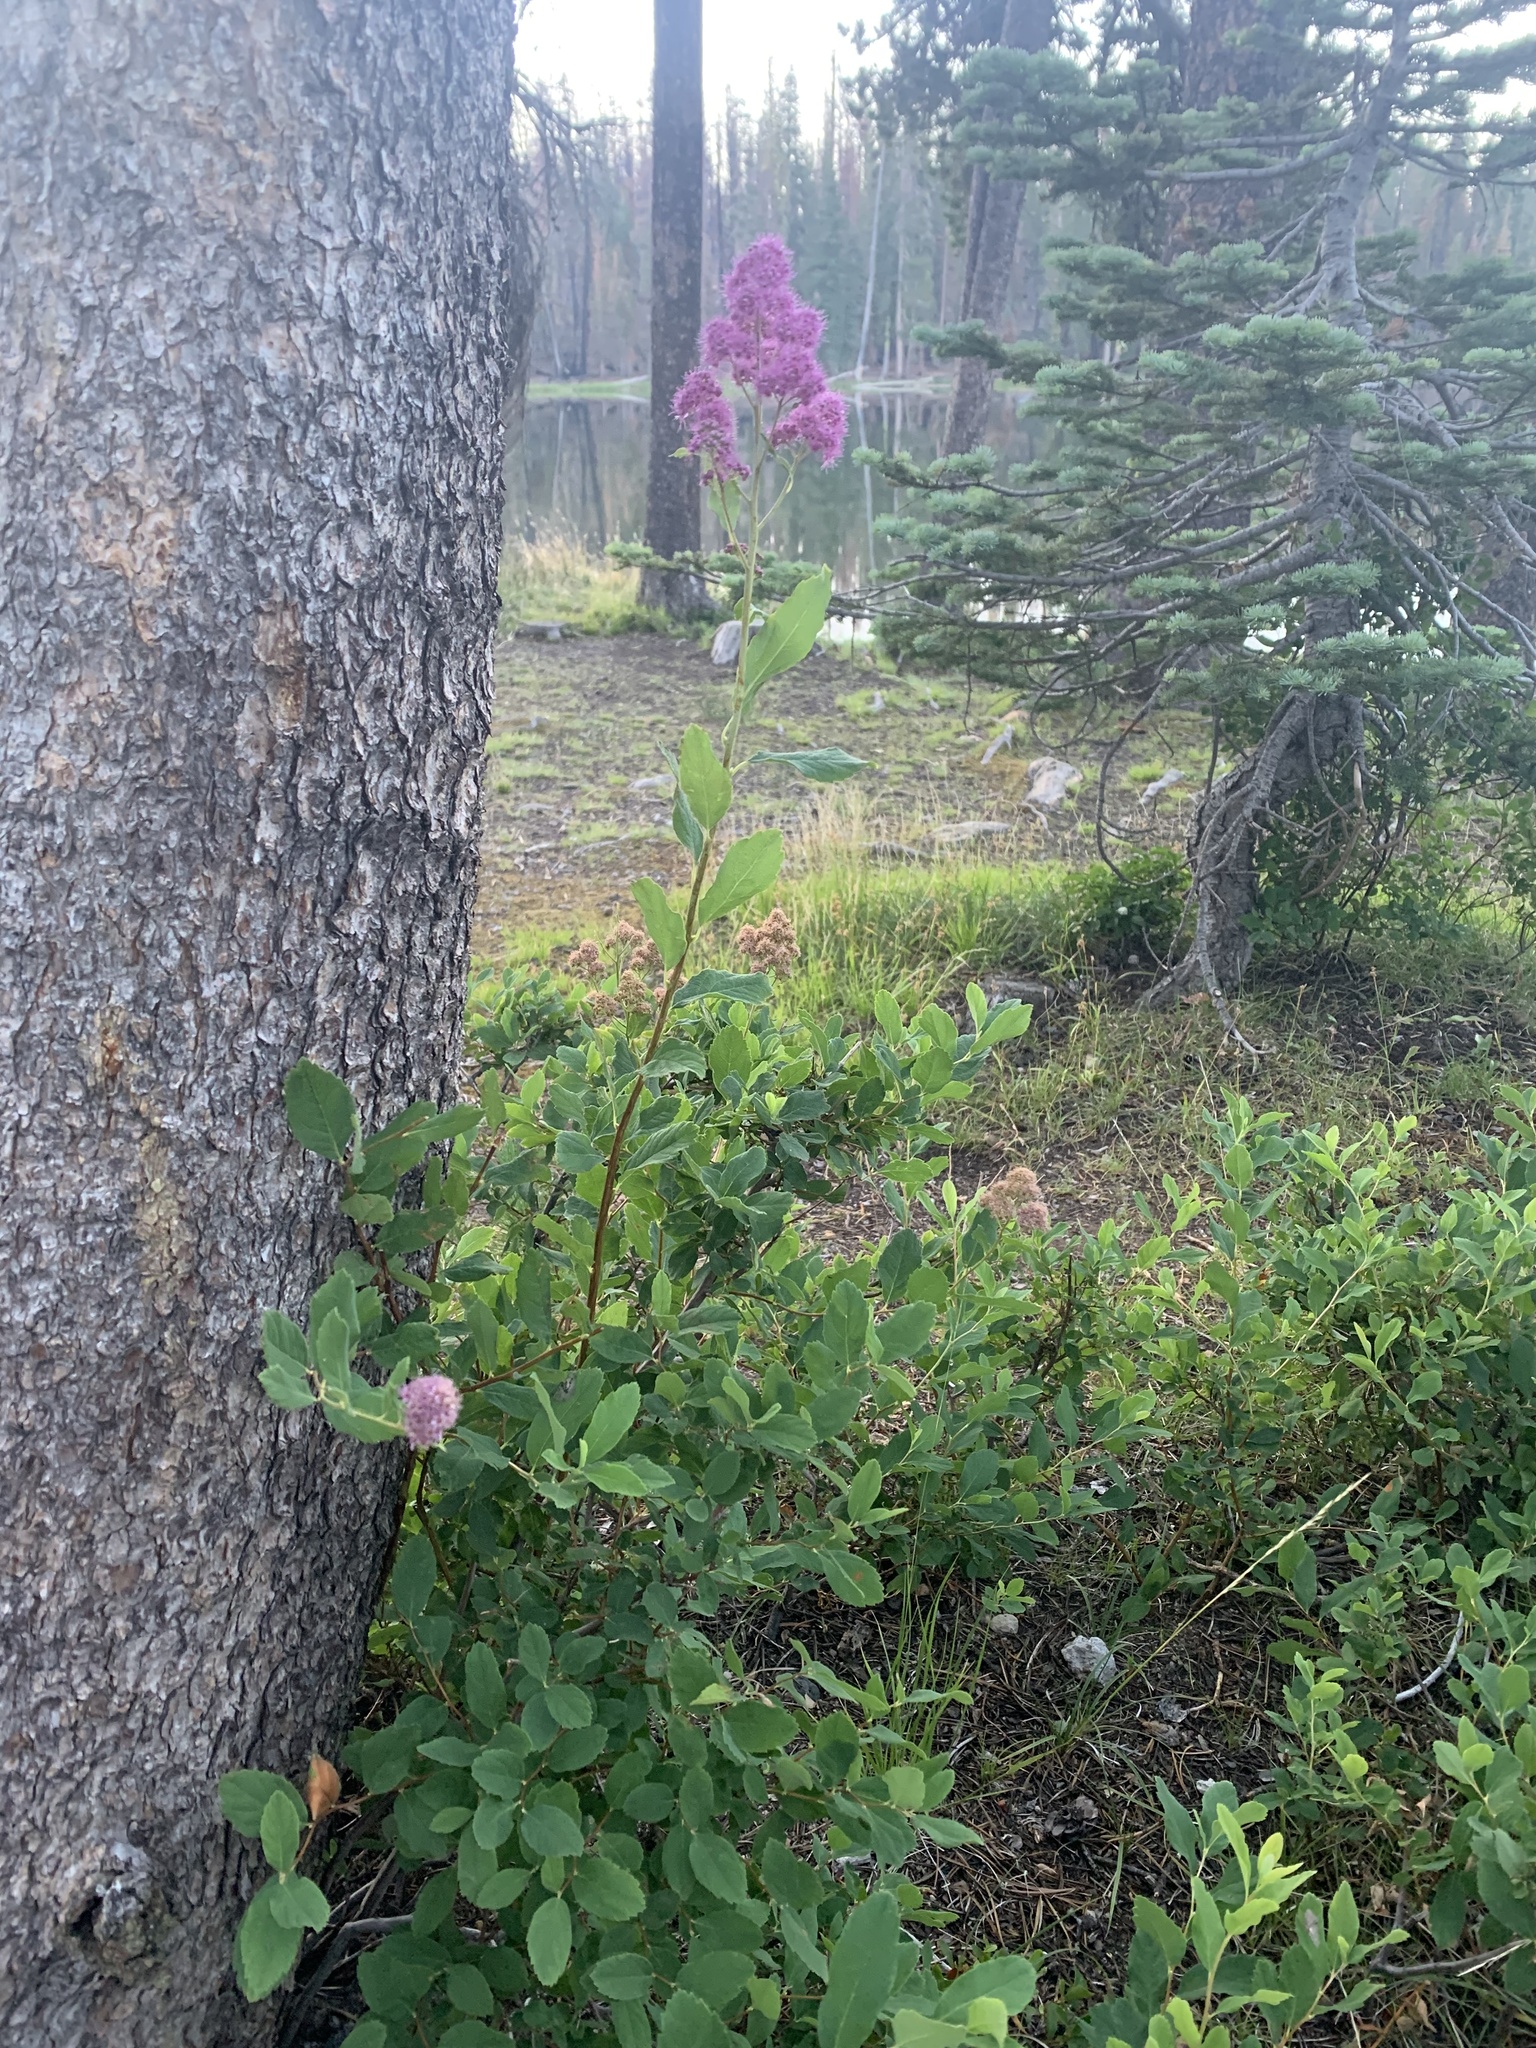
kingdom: Plantae
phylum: Tracheophyta
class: Magnoliopsida
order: Rosales
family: Rosaceae
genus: Spiraea
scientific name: Spiraea douglasii
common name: Steeplebush
